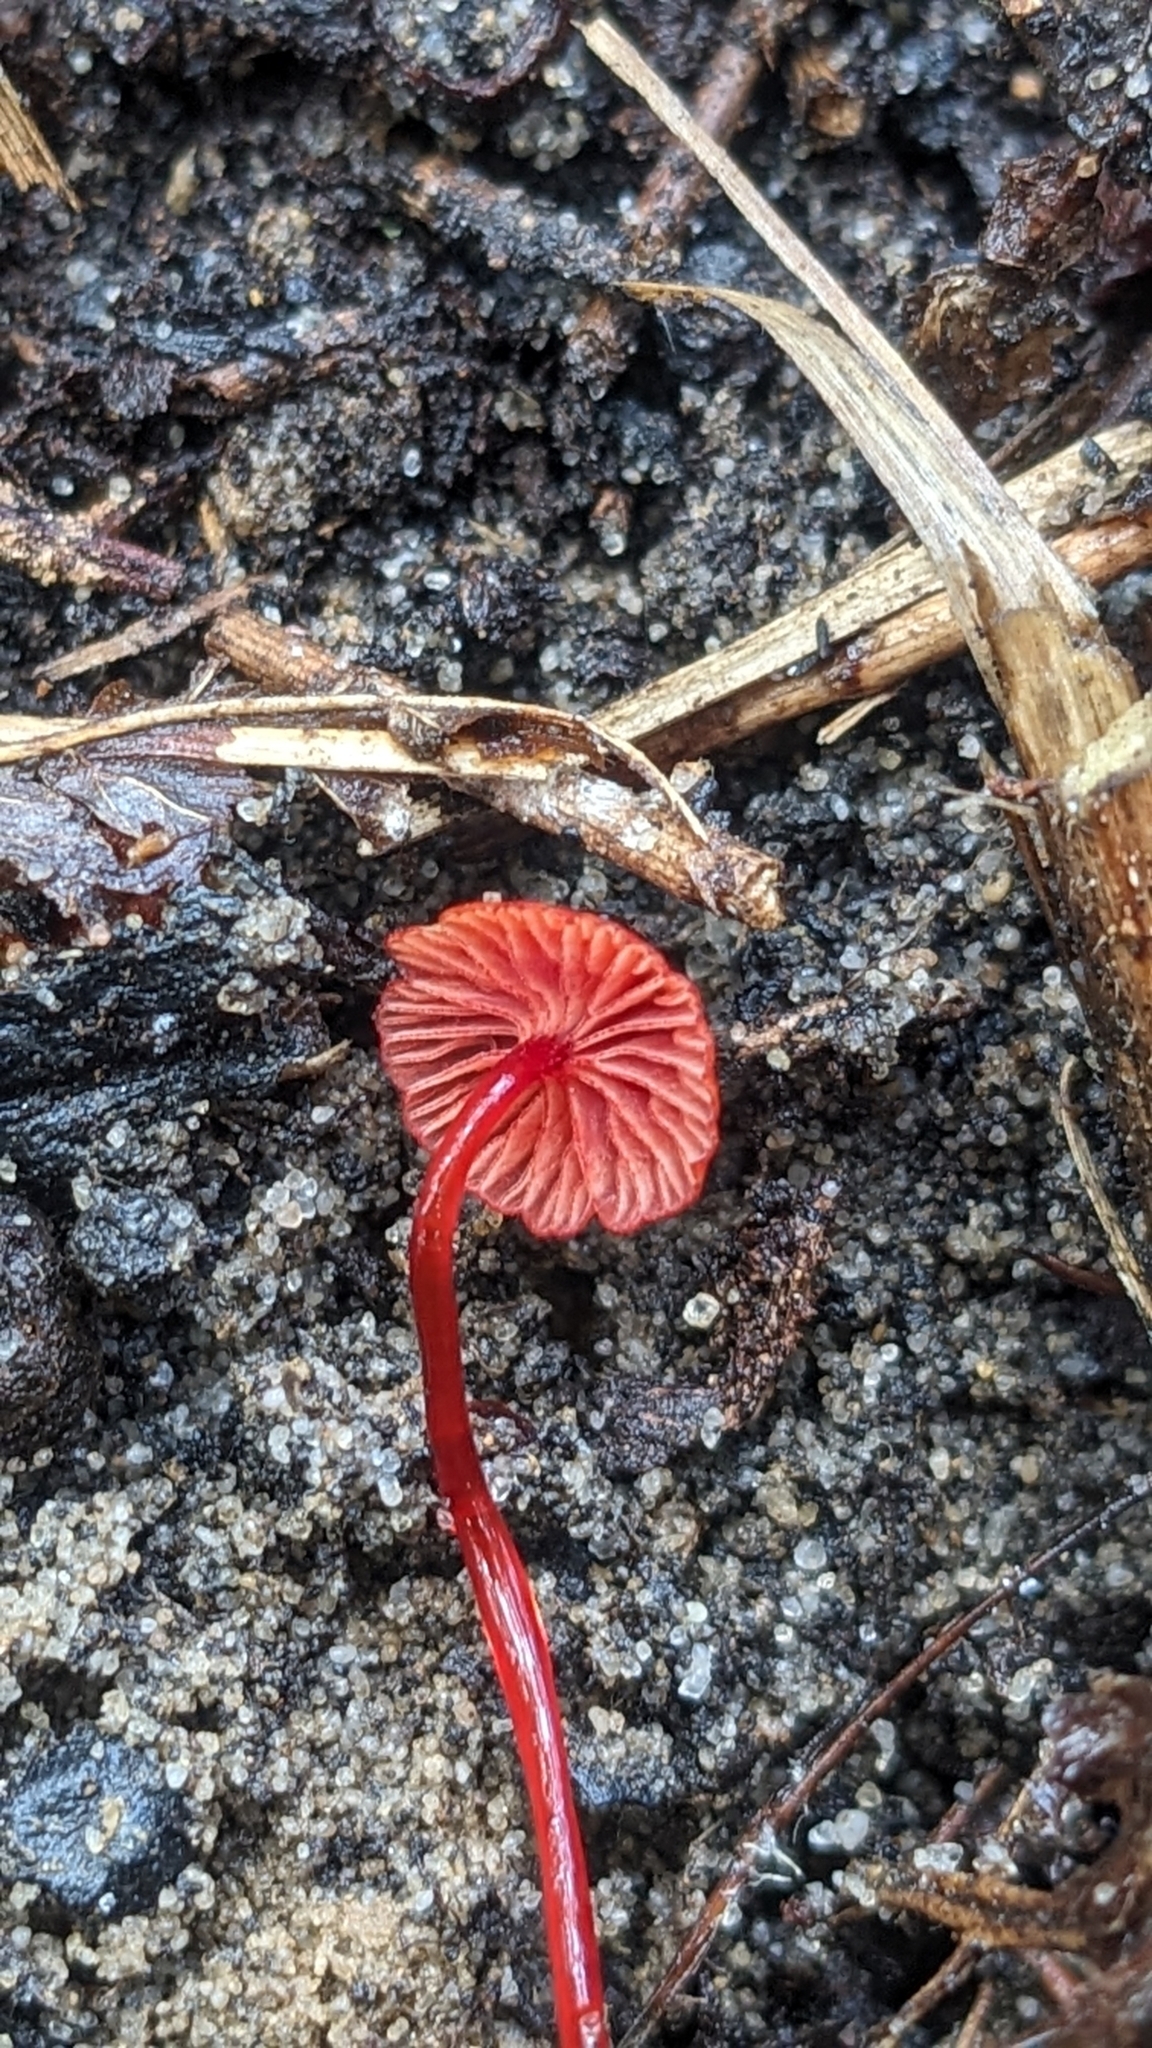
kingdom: Fungi
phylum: Basidiomycota
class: Agaricomycetes
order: Agaricales
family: Mycenaceae
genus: Cruentomycena
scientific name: Cruentomycena viscidocruenta
